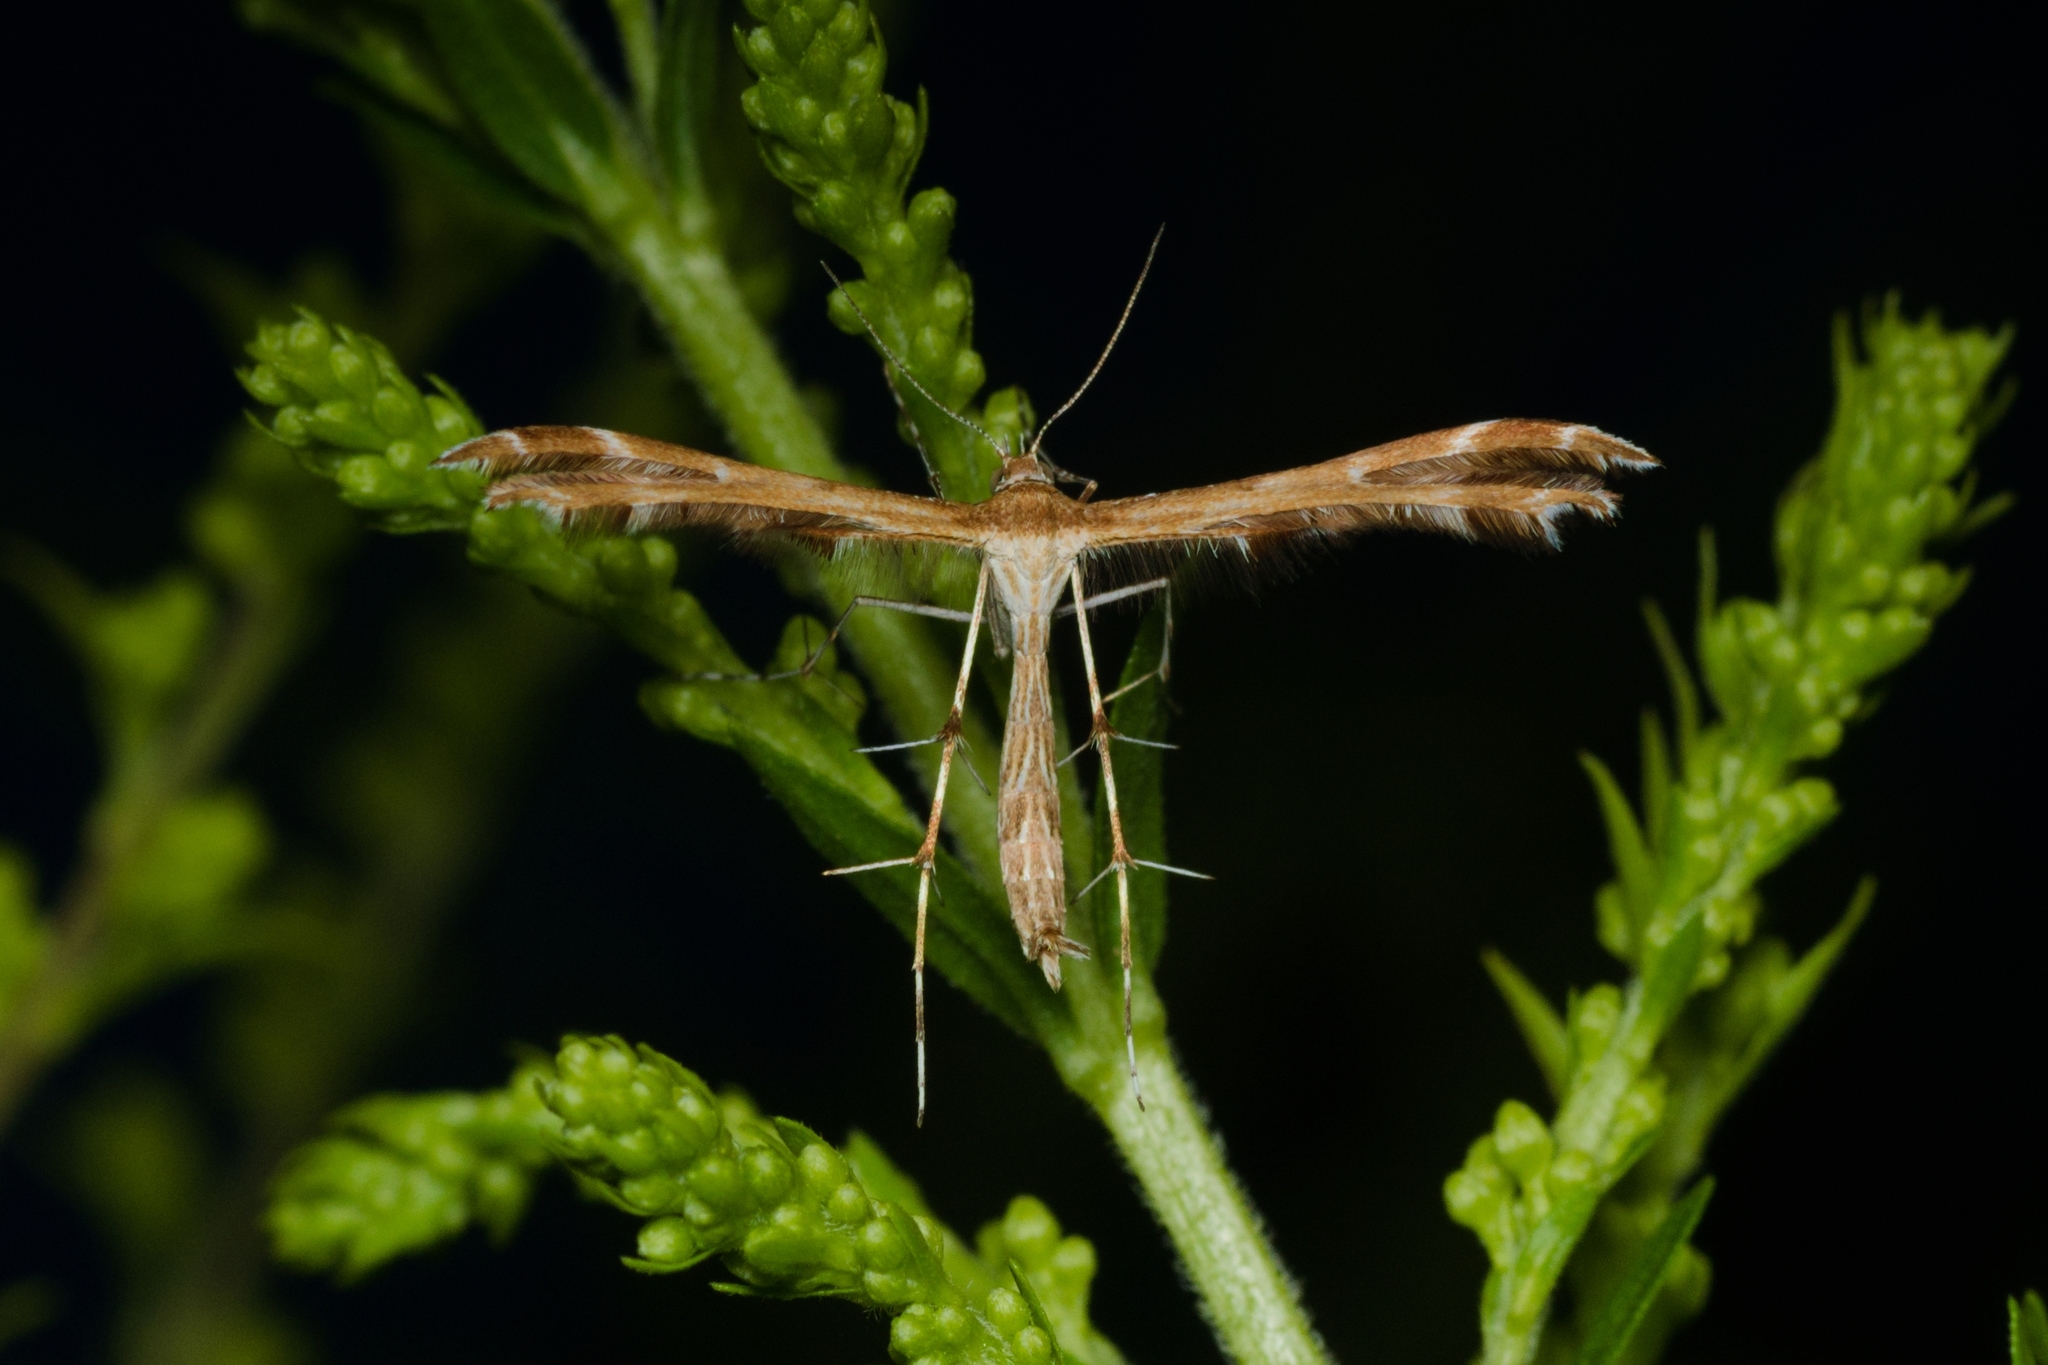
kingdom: Animalia
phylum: Arthropoda
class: Insecta
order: Lepidoptera
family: Pterophoridae
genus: Crombrugghia
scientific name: Crombrugghia distans
